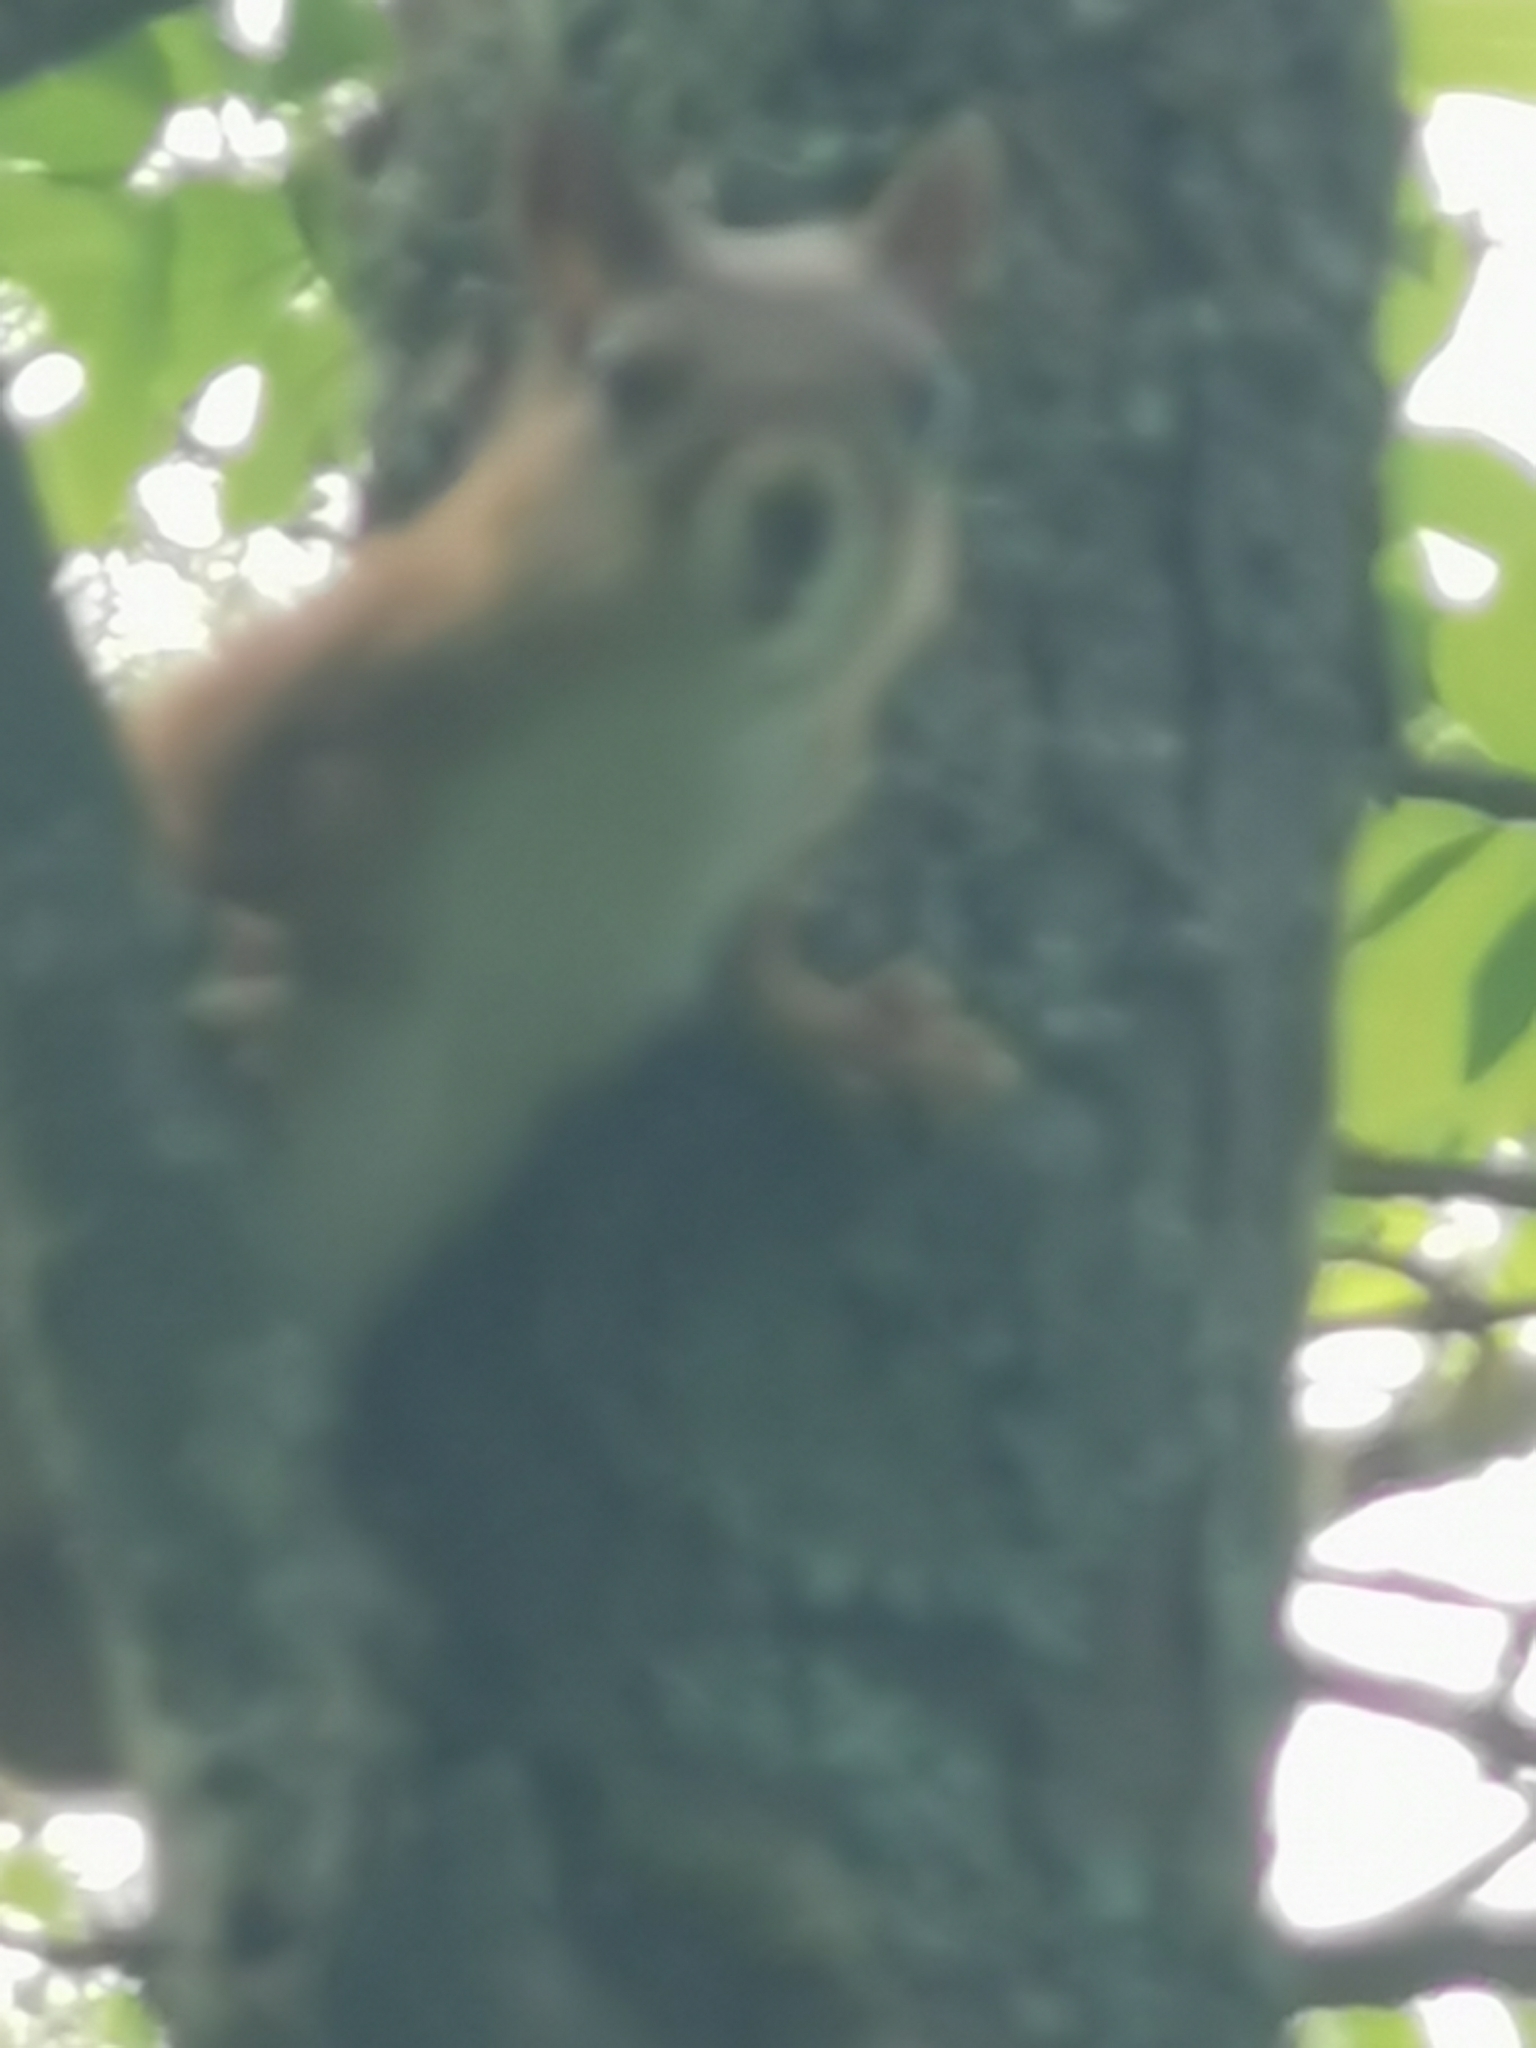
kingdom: Animalia
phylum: Chordata
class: Mammalia
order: Rodentia
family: Sciuridae
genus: Sciurus
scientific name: Sciurus vulgaris
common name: Eurasian red squirrel
